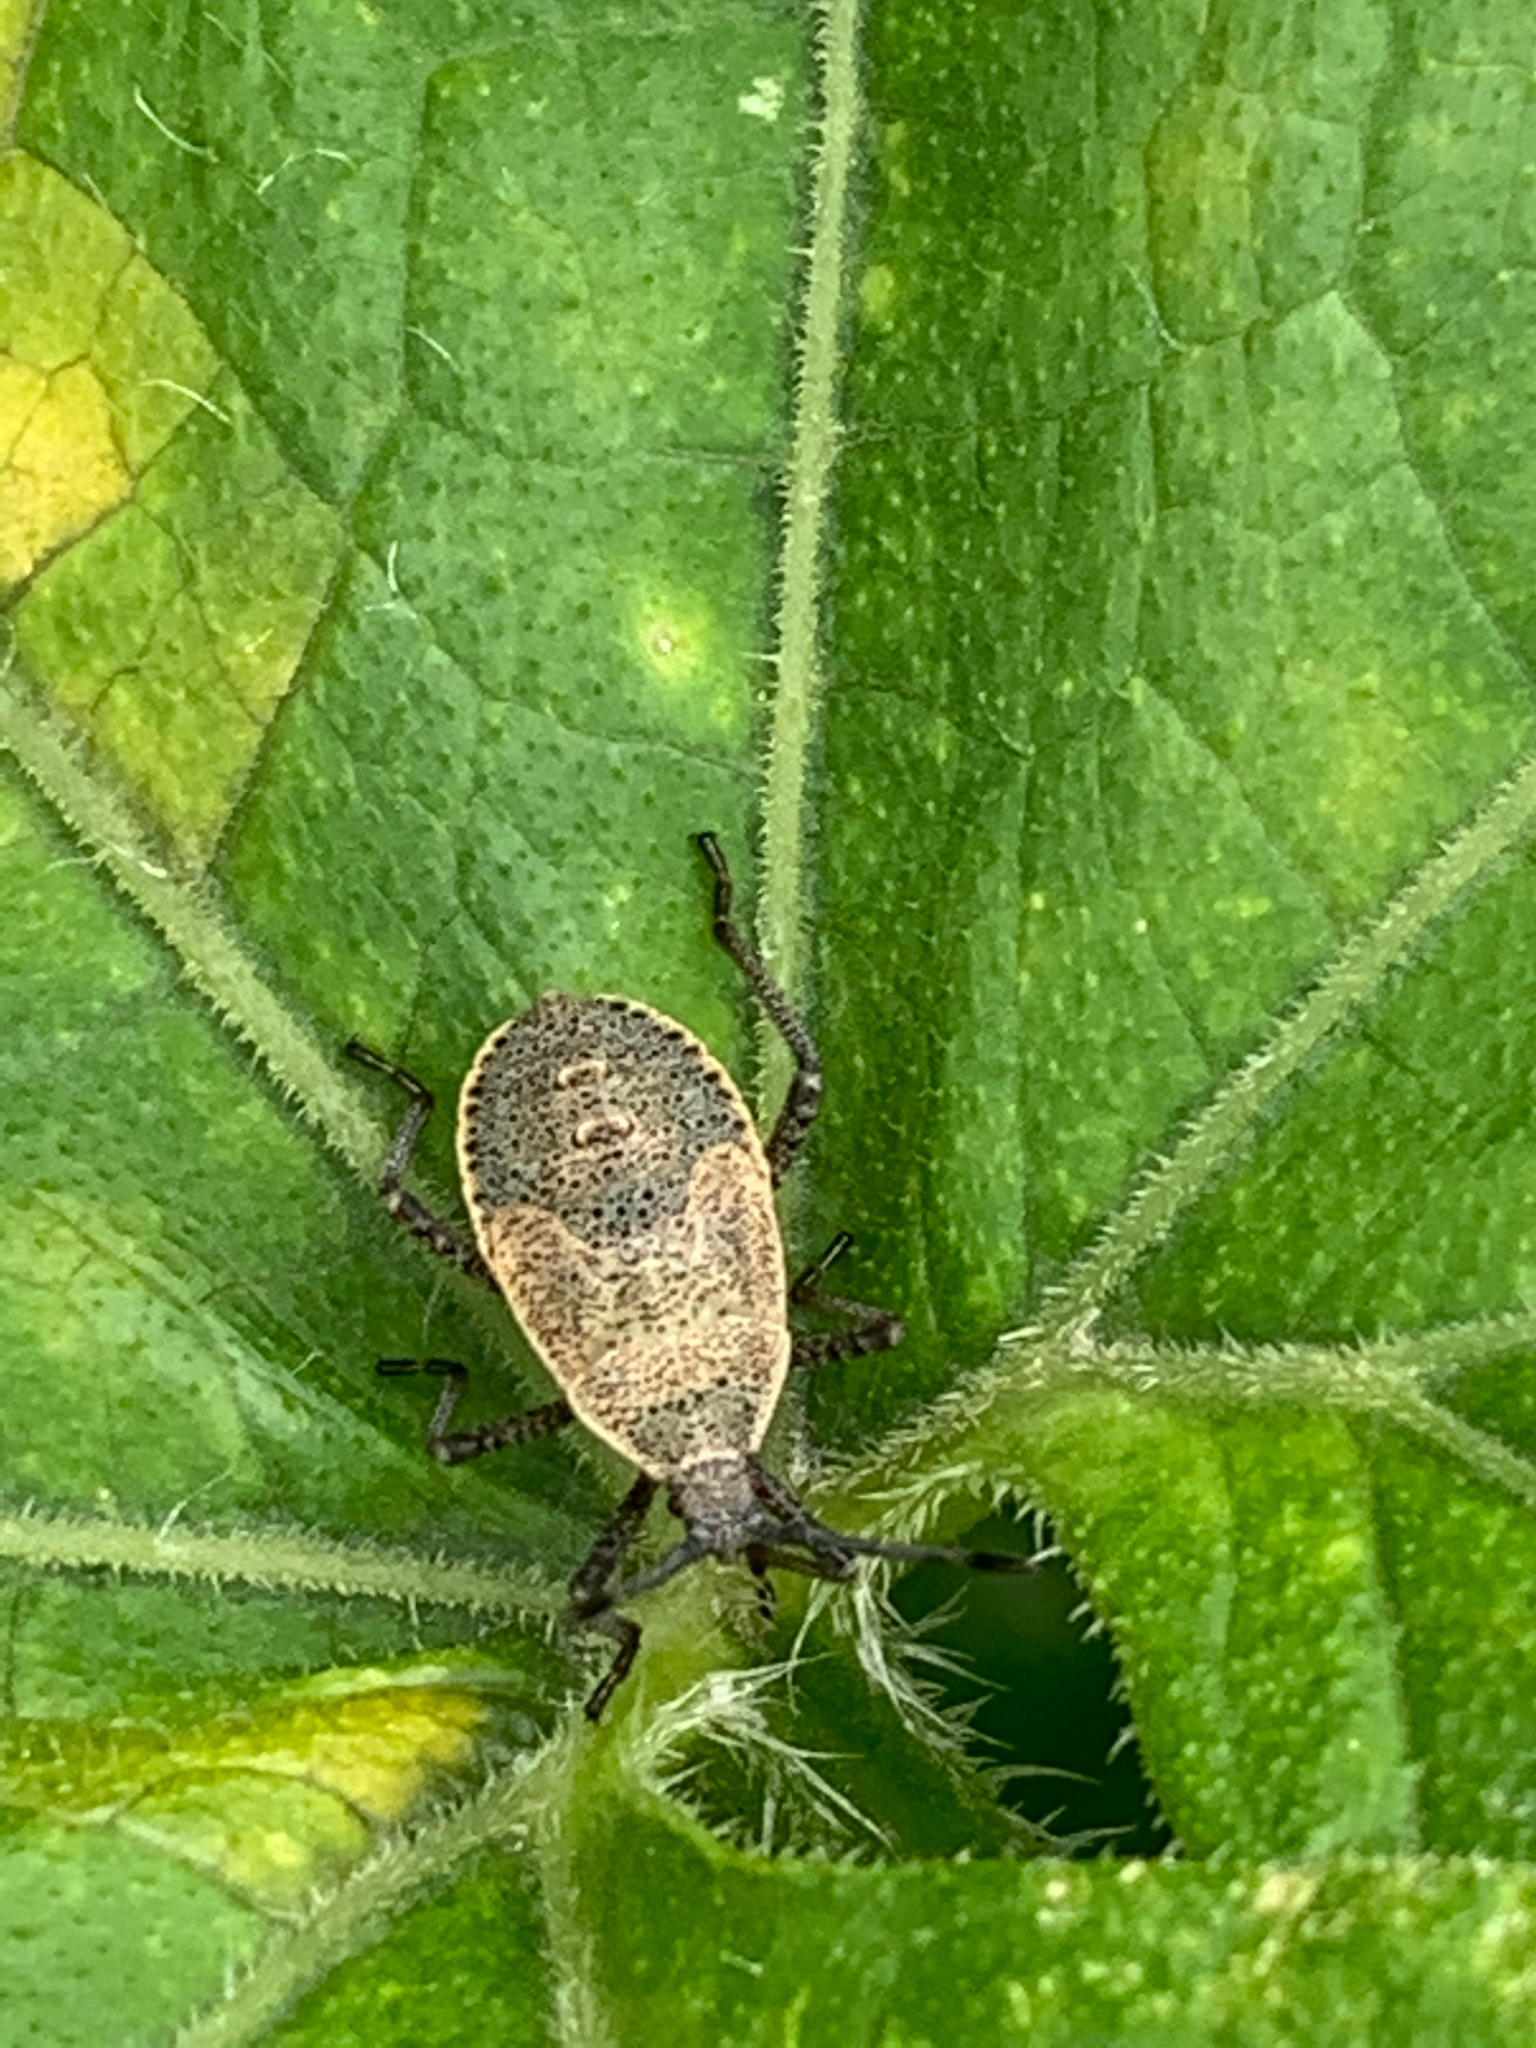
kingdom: Animalia
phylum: Arthropoda
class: Insecta
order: Hemiptera
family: Coreidae
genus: Anasa
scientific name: Anasa tristis
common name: Squash bug
